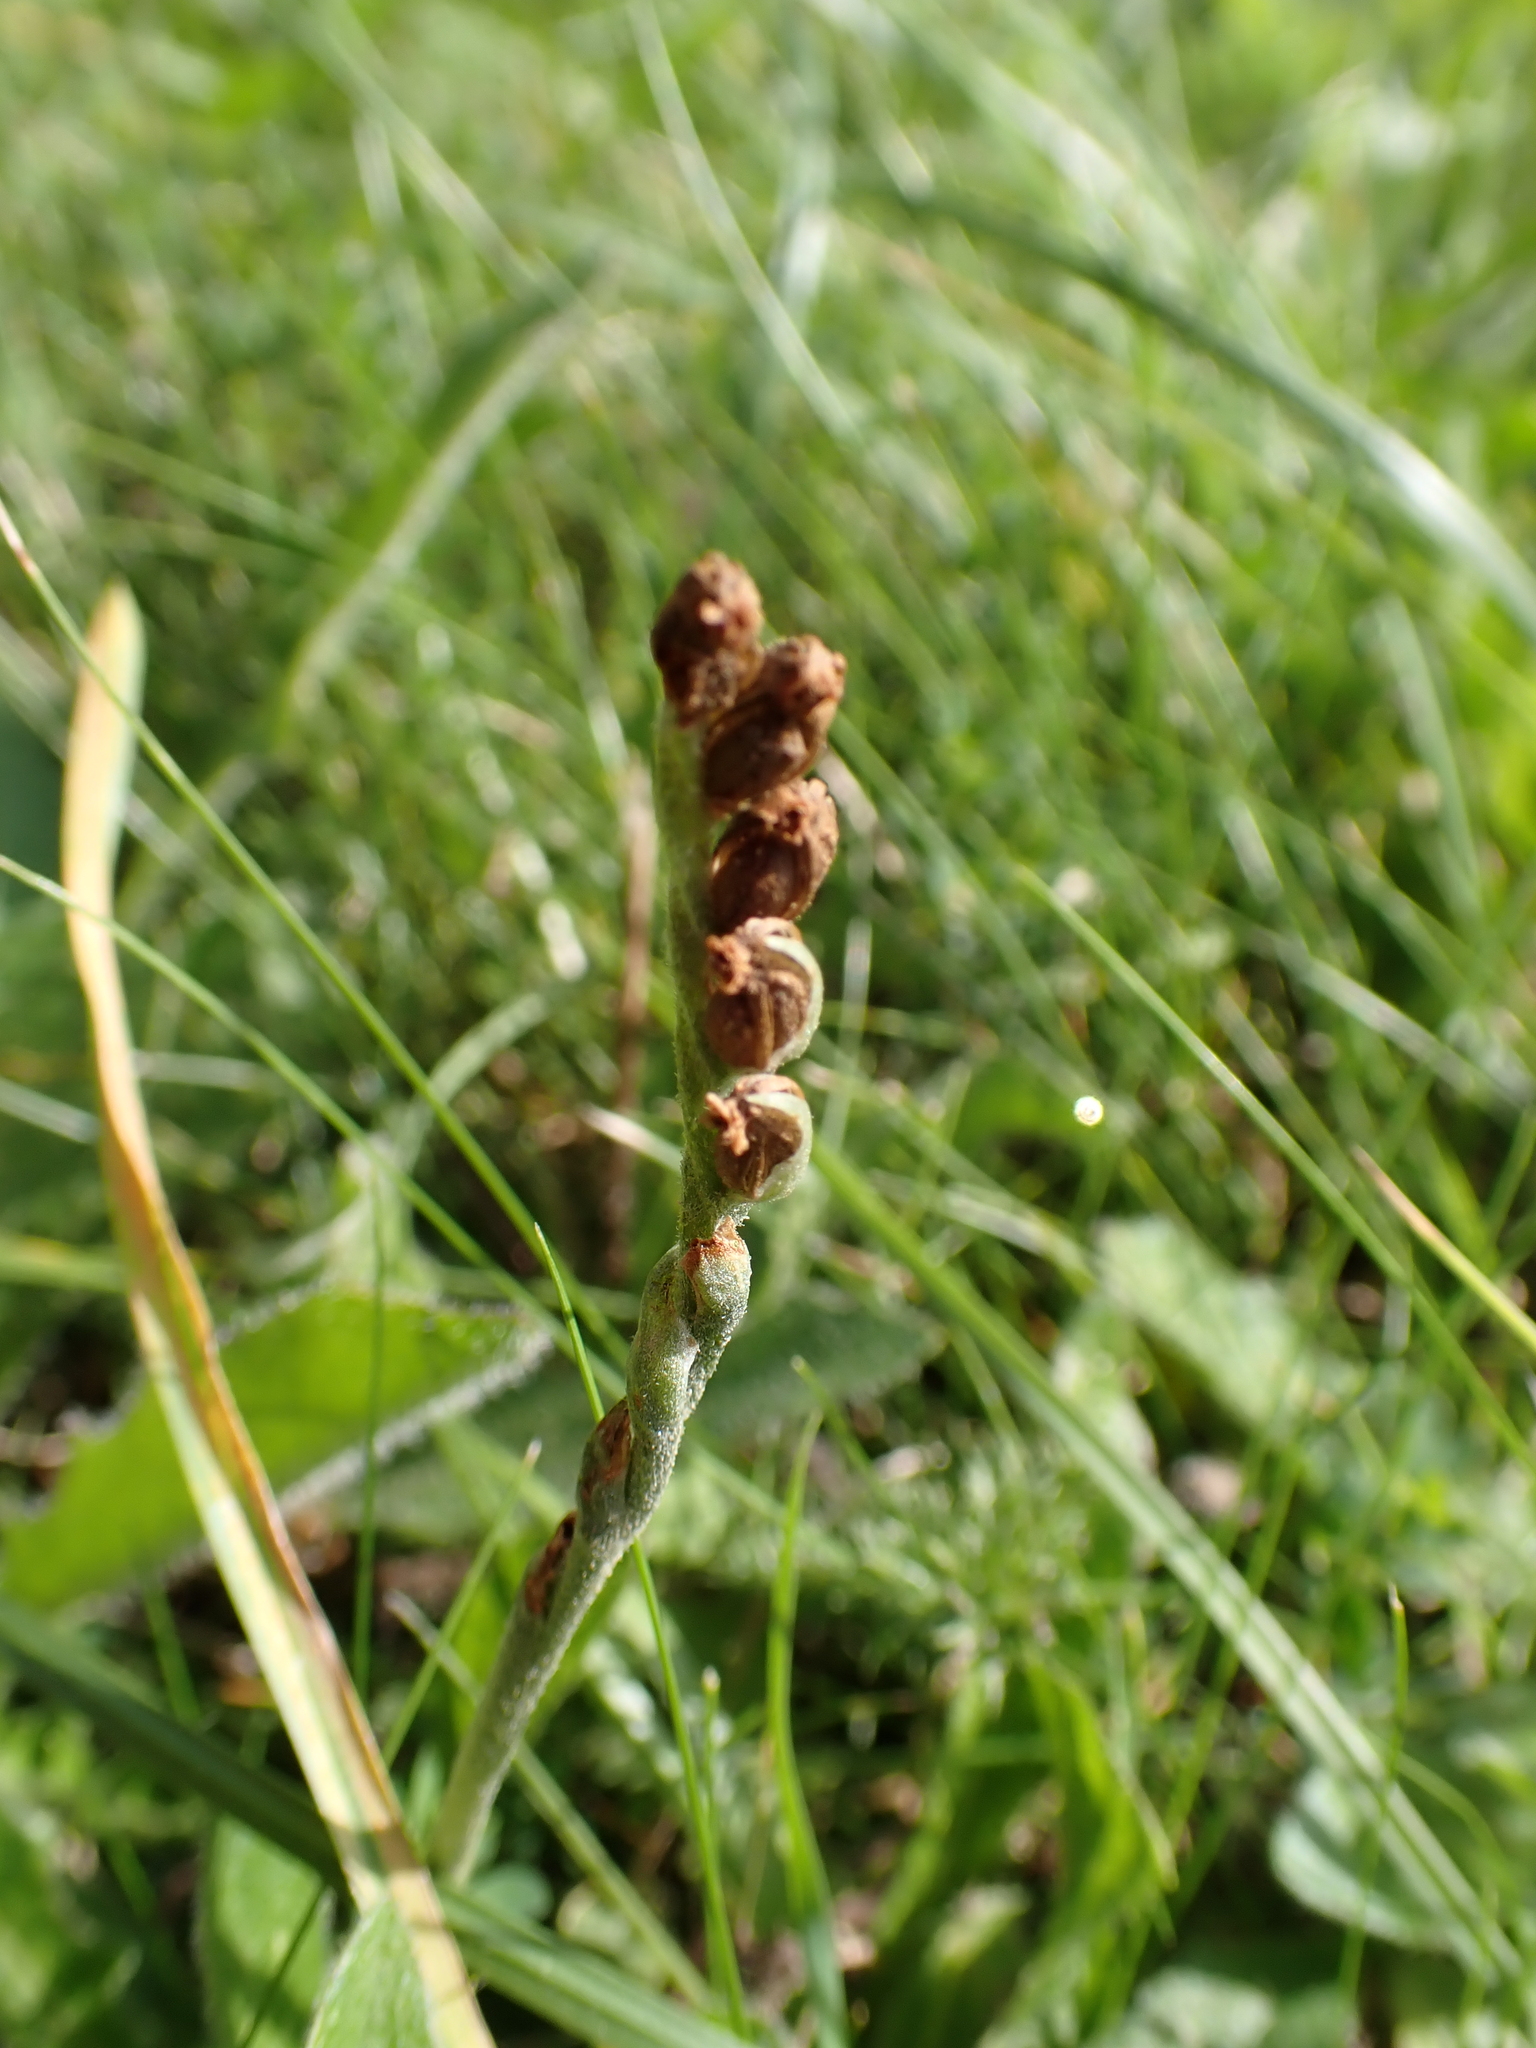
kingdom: Plantae
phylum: Tracheophyta
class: Liliopsida
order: Asparagales
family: Orchidaceae
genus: Spiranthes
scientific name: Spiranthes spiralis
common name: Autumn lady's-tresses
